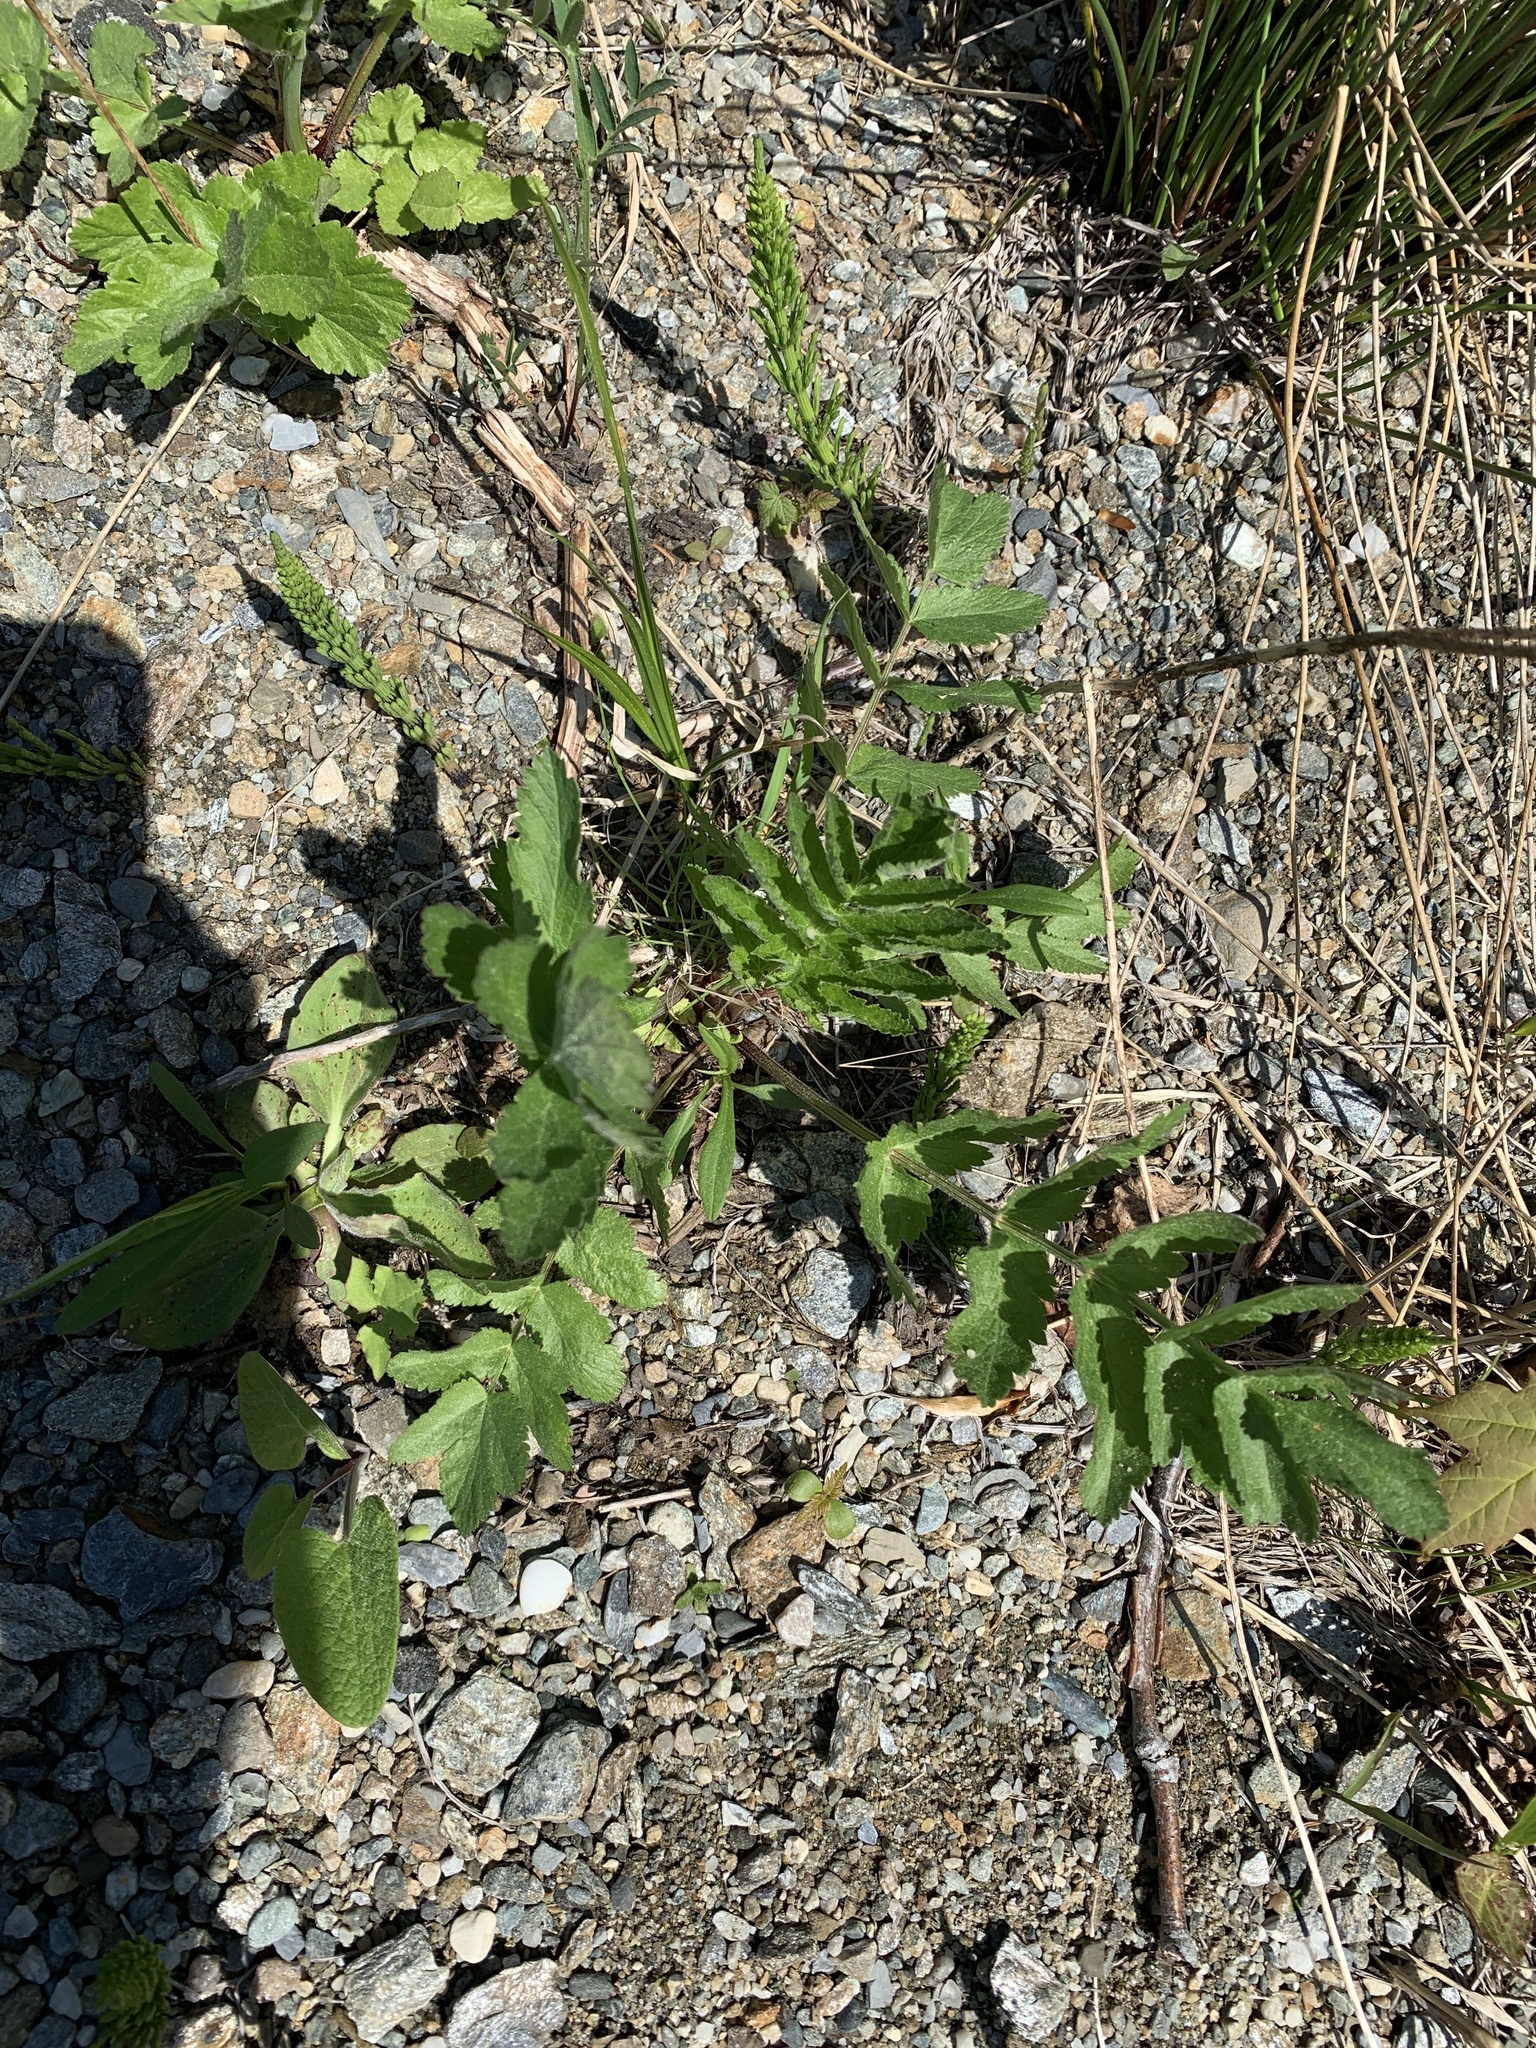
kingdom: Plantae
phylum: Tracheophyta
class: Magnoliopsida
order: Apiales
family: Apiaceae
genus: Pastinaca
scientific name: Pastinaca sativa
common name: Wild parsnip
